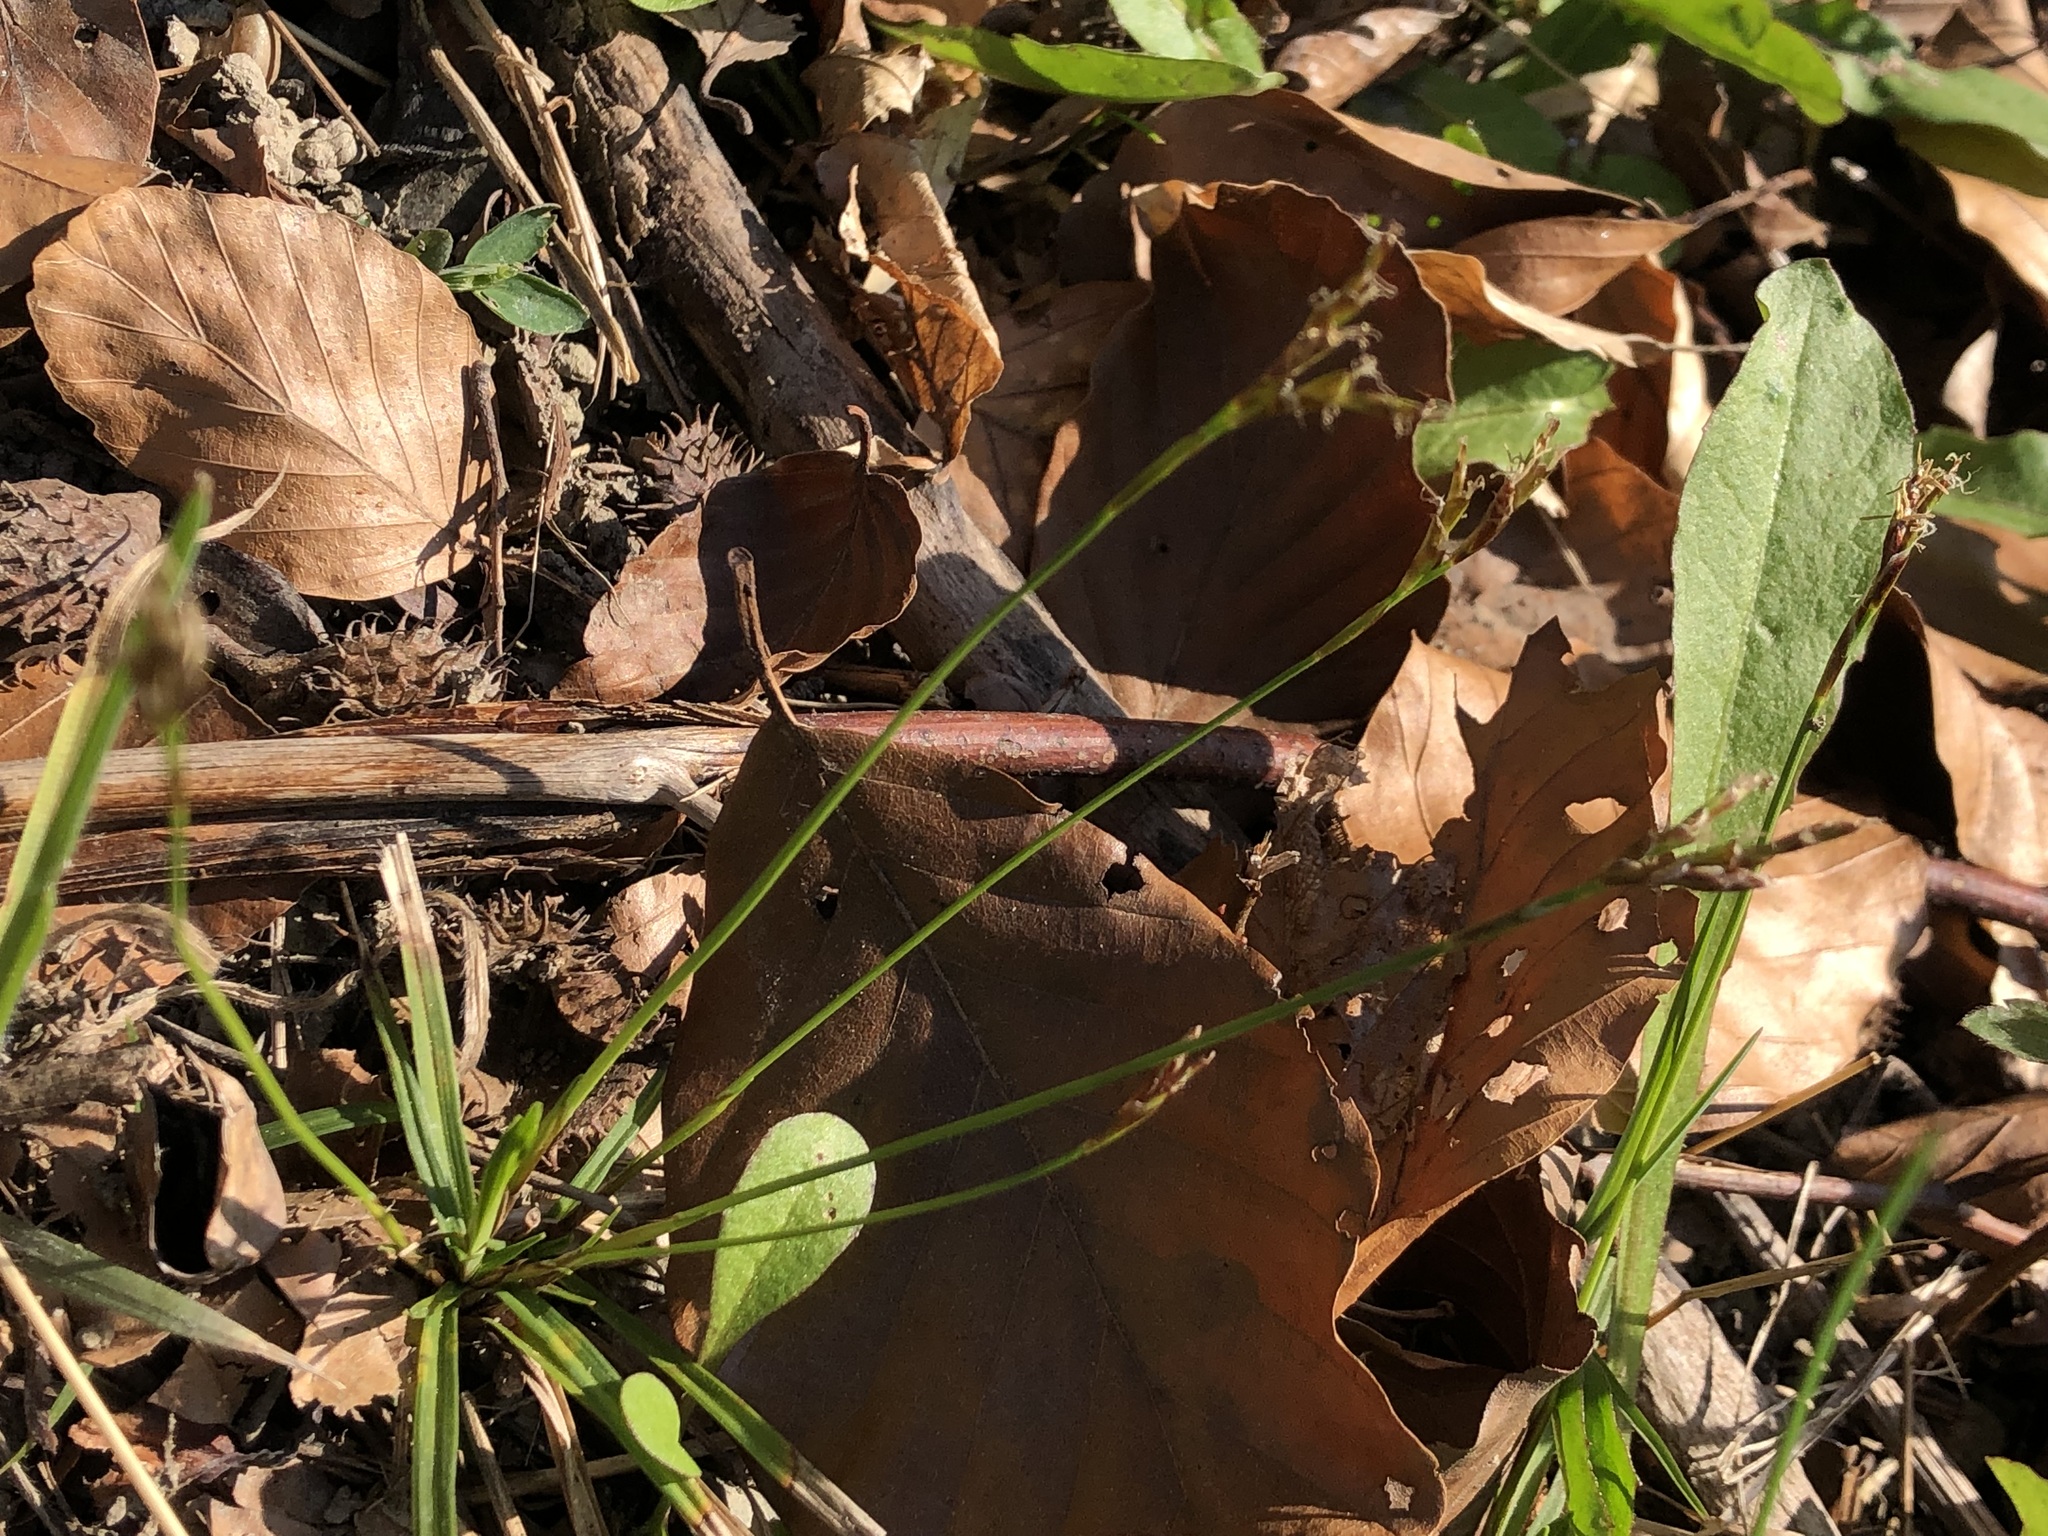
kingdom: Plantae
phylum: Tracheophyta
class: Liliopsida
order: Poales
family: Cyperaceae
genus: Carex
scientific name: Carex digitata
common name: Fingered sedge
